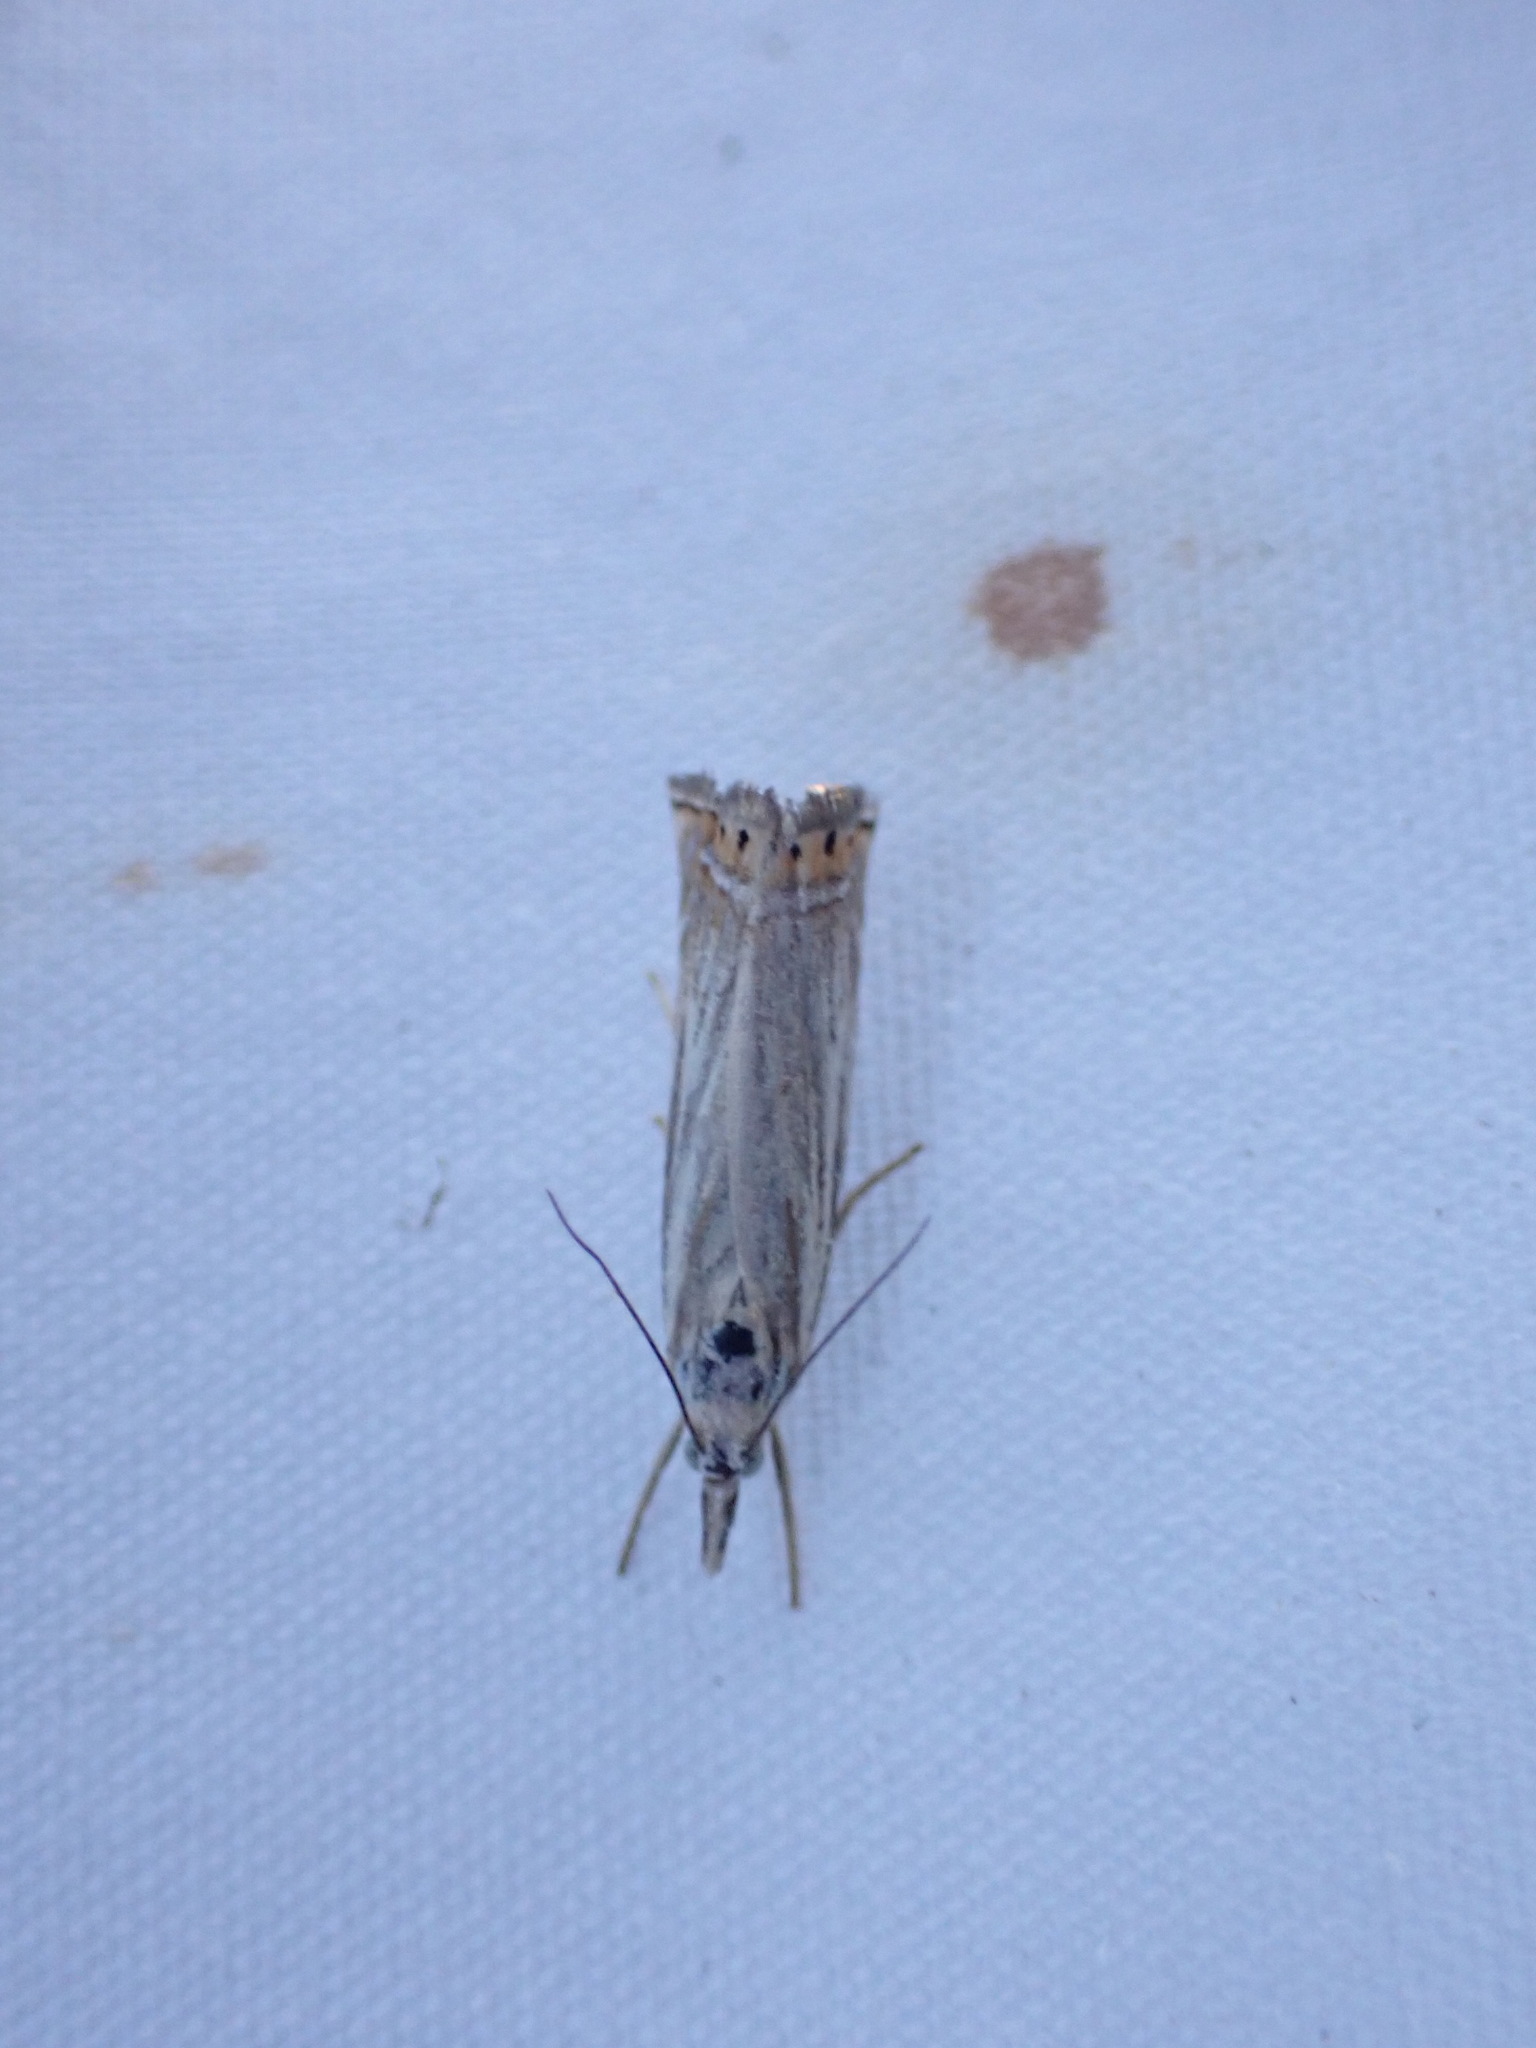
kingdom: Animalia
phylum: Arthropoda
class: Insecta
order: Lepidoptera
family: Crambidae
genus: Chrysoteuchia
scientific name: Chrysoteuchia topiarius
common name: Topiary grass-veneer
